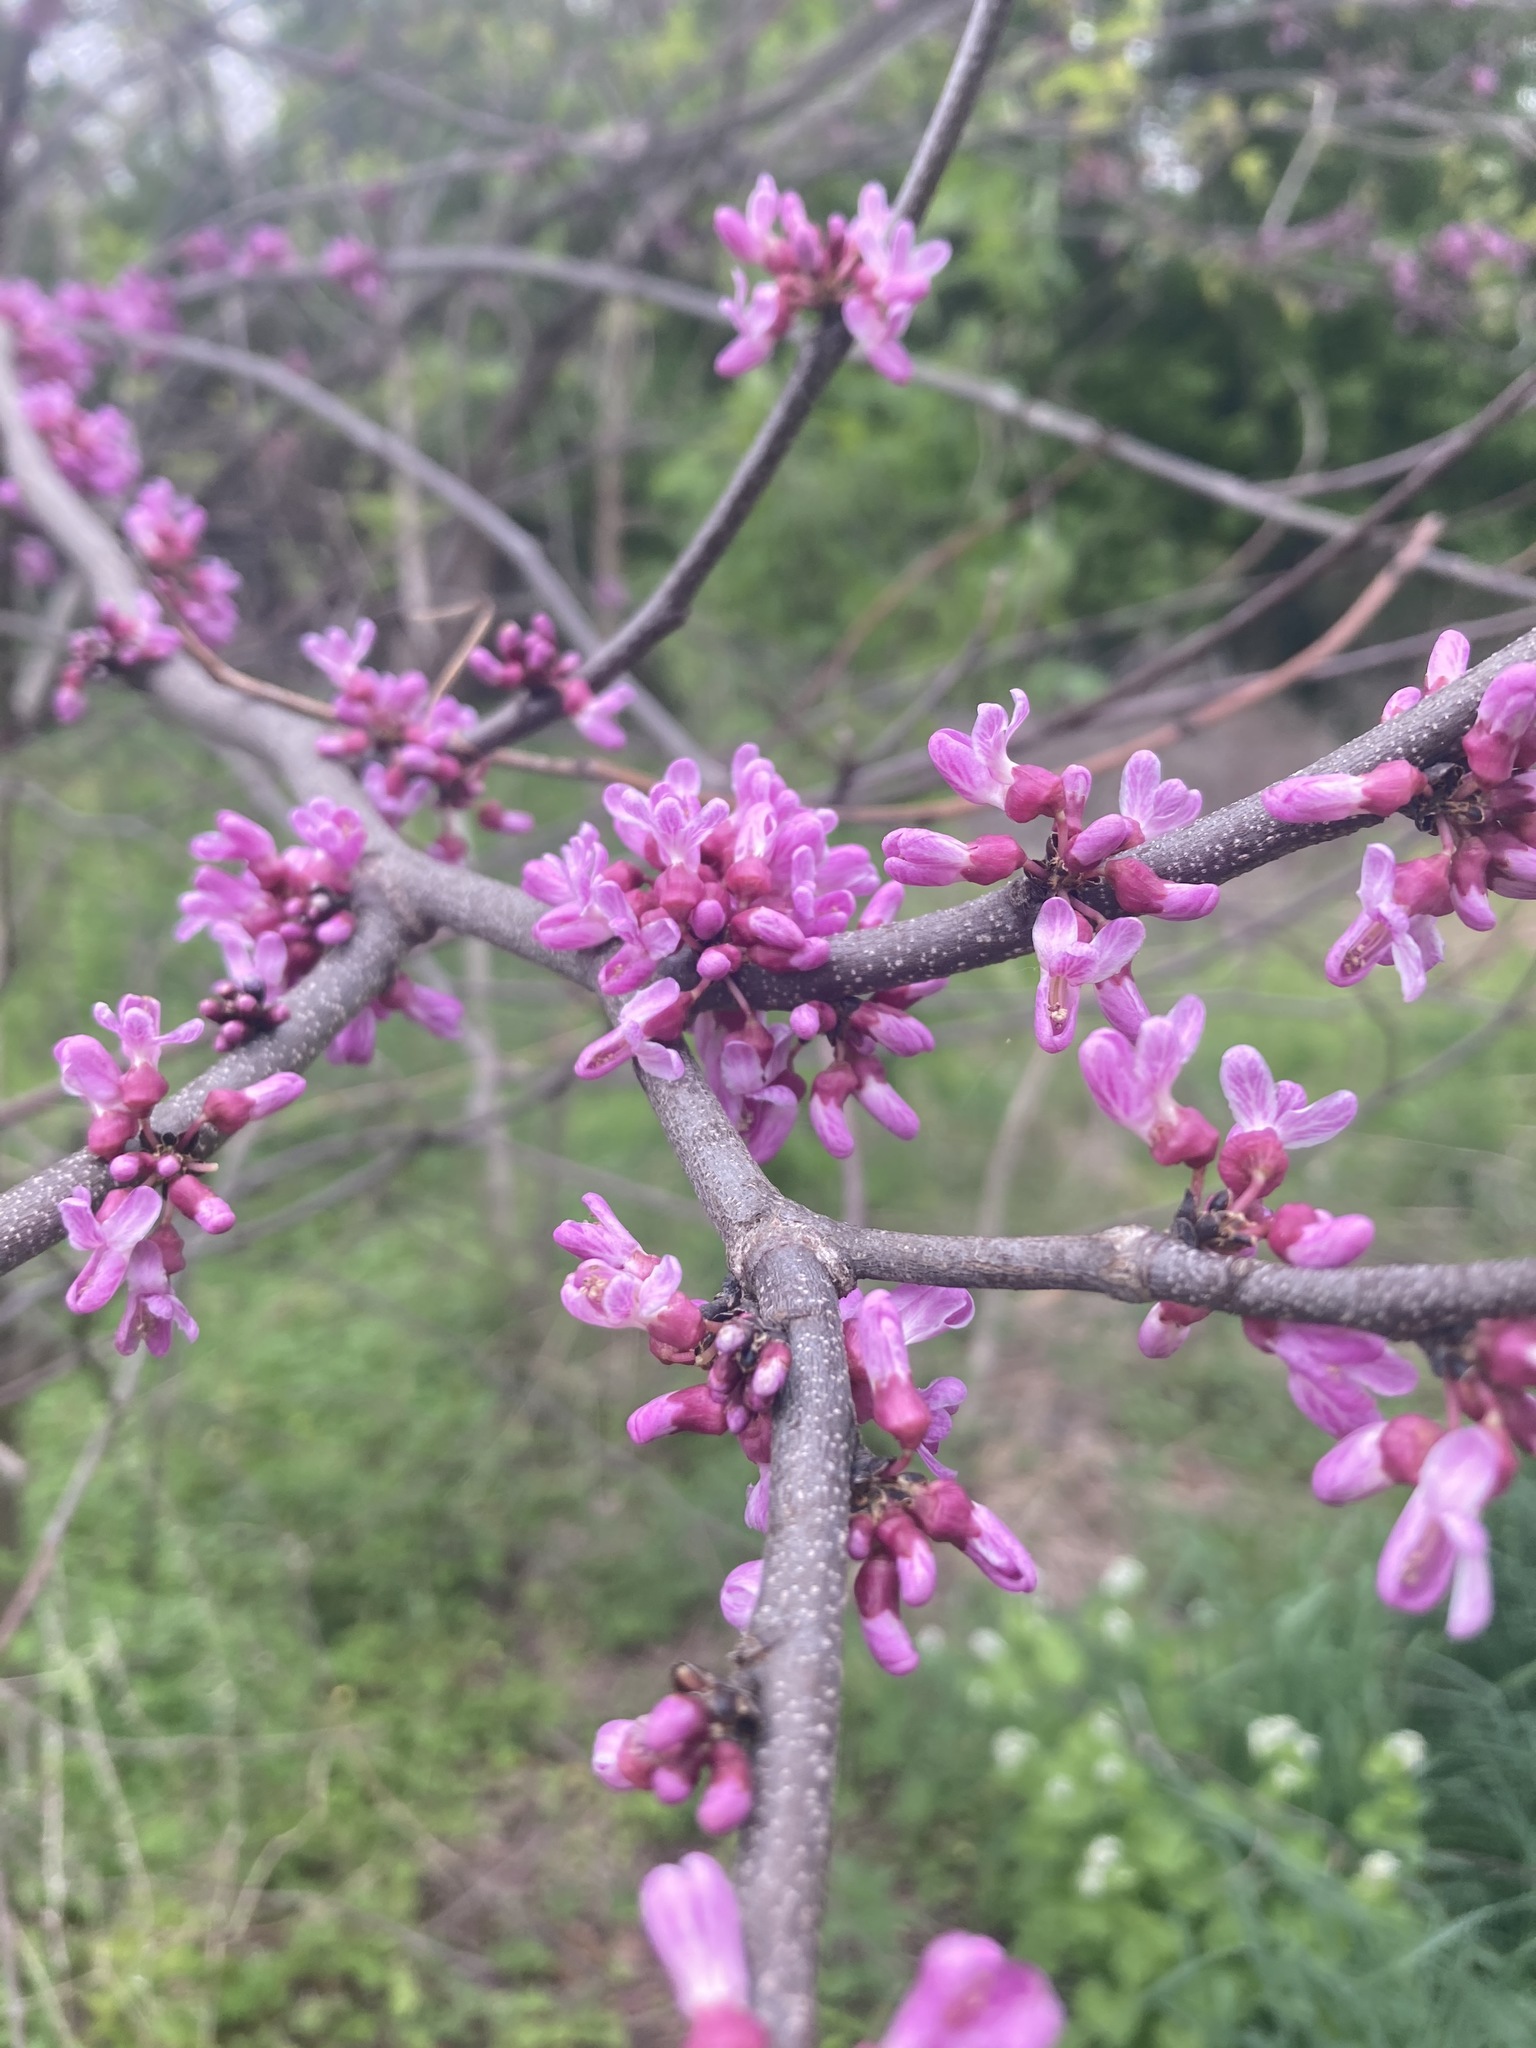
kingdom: Plantae
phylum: Tracheophyta
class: Magnoliopsida
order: Fabales
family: Fabaceae
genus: Cercis
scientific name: Cercis canadensis
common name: Eastern redbud
